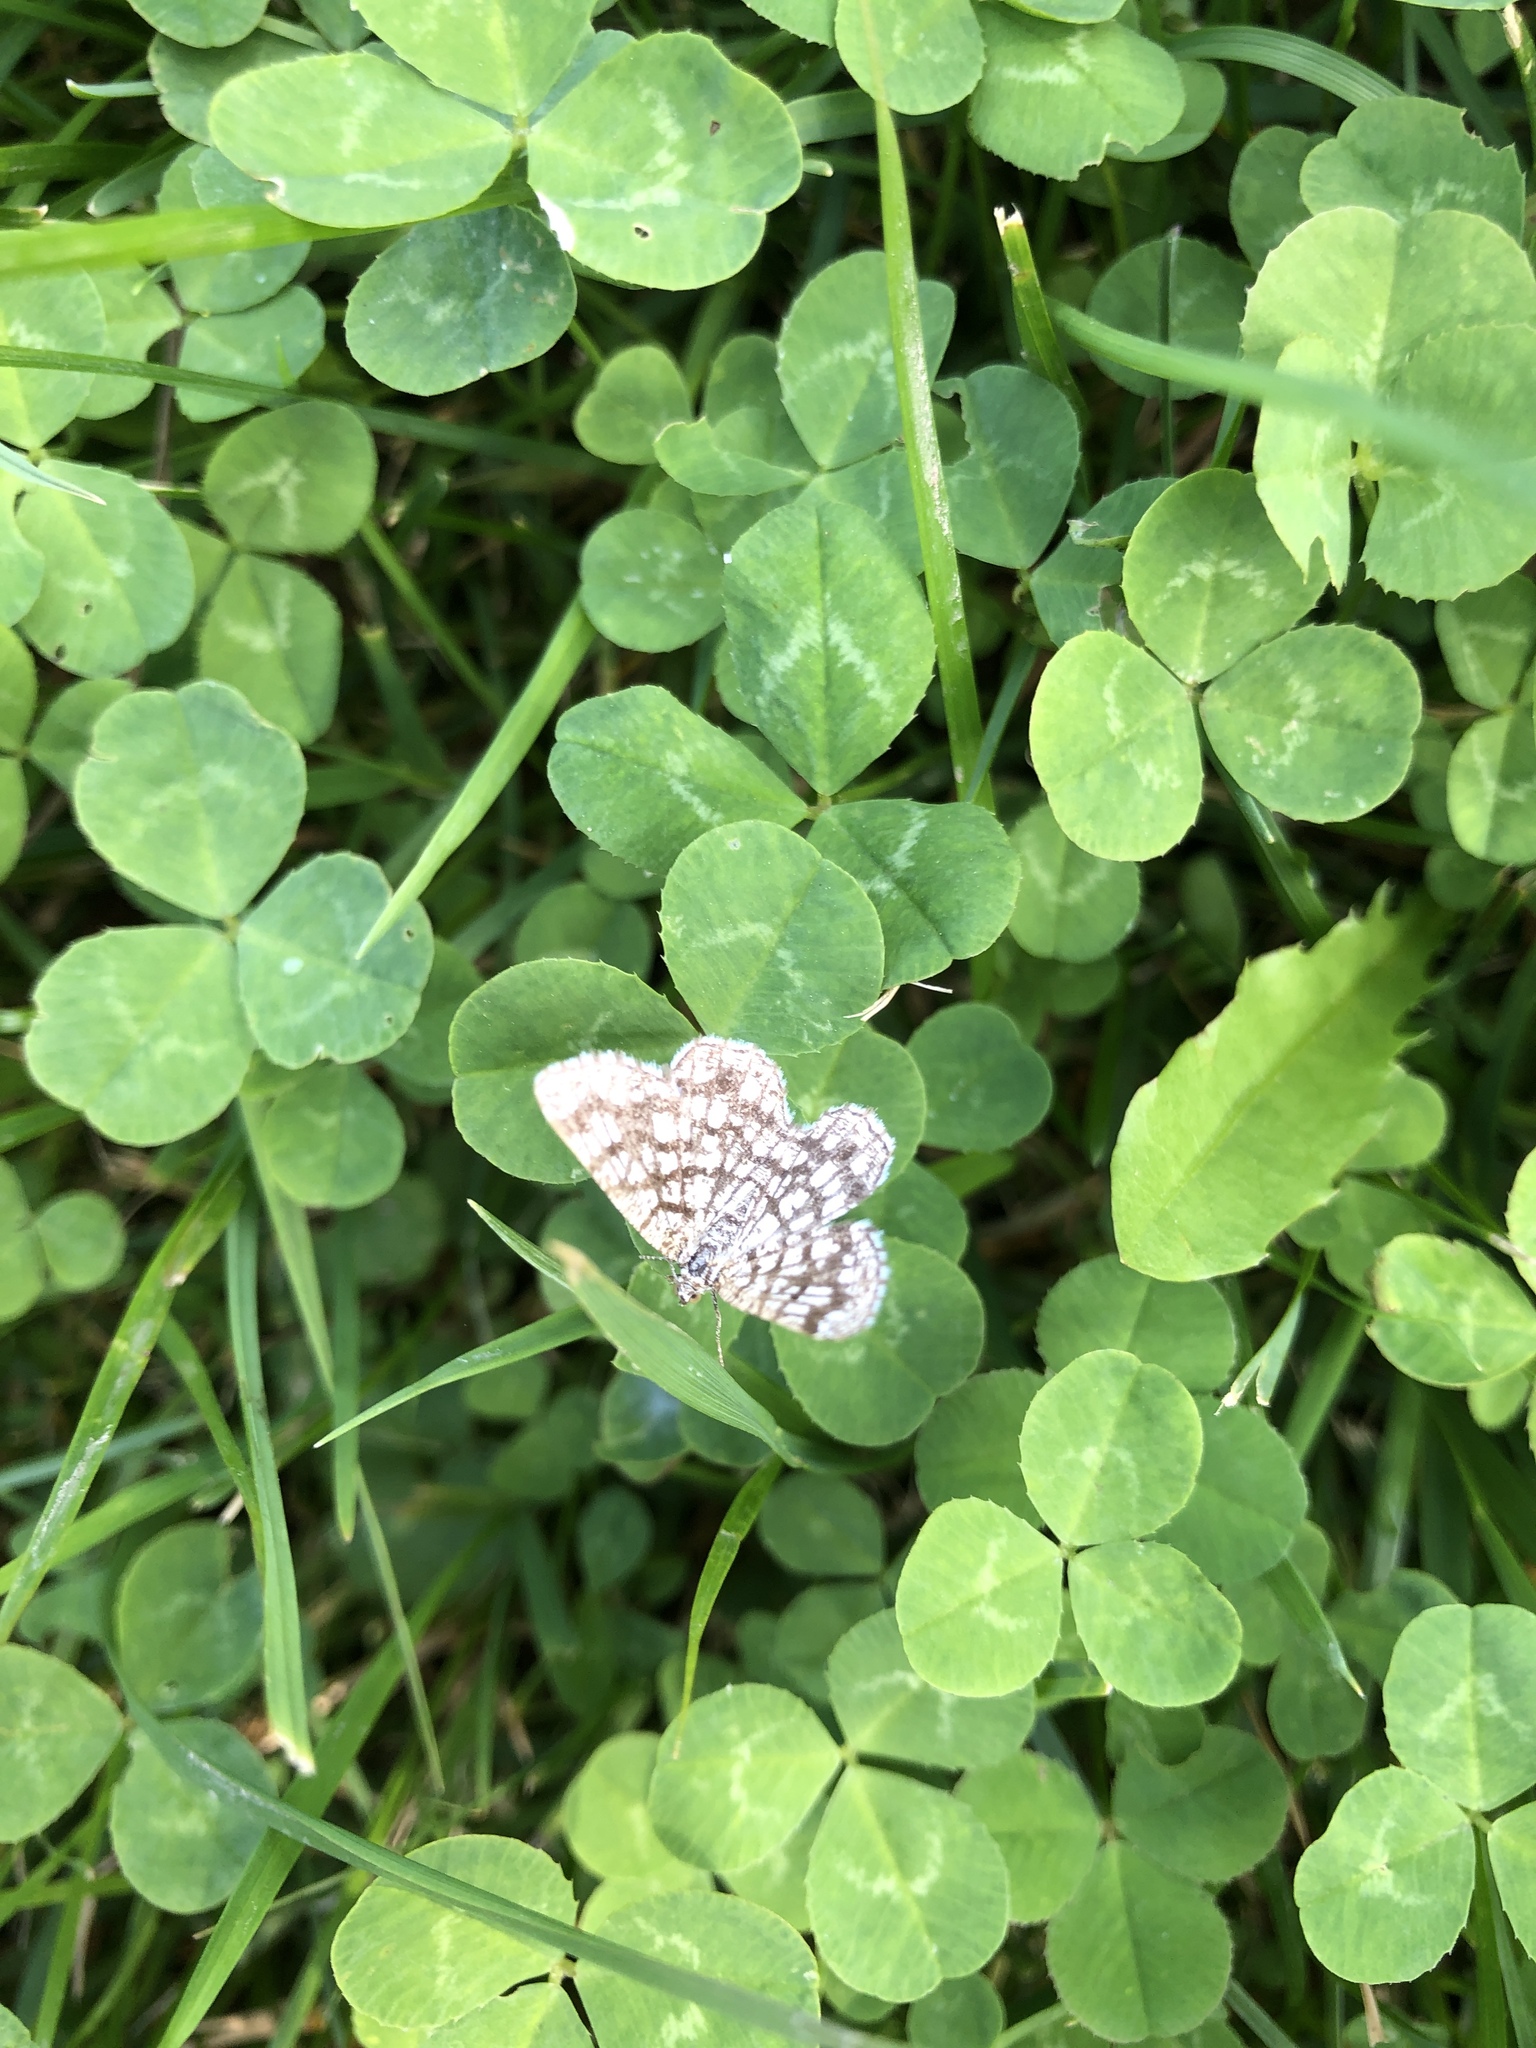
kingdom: Animalia
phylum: Arthropoda
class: Insecta
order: Lepidoptera
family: Geometridae
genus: Chiasmia
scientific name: Chiasmia clathrata
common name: Latticed heath
